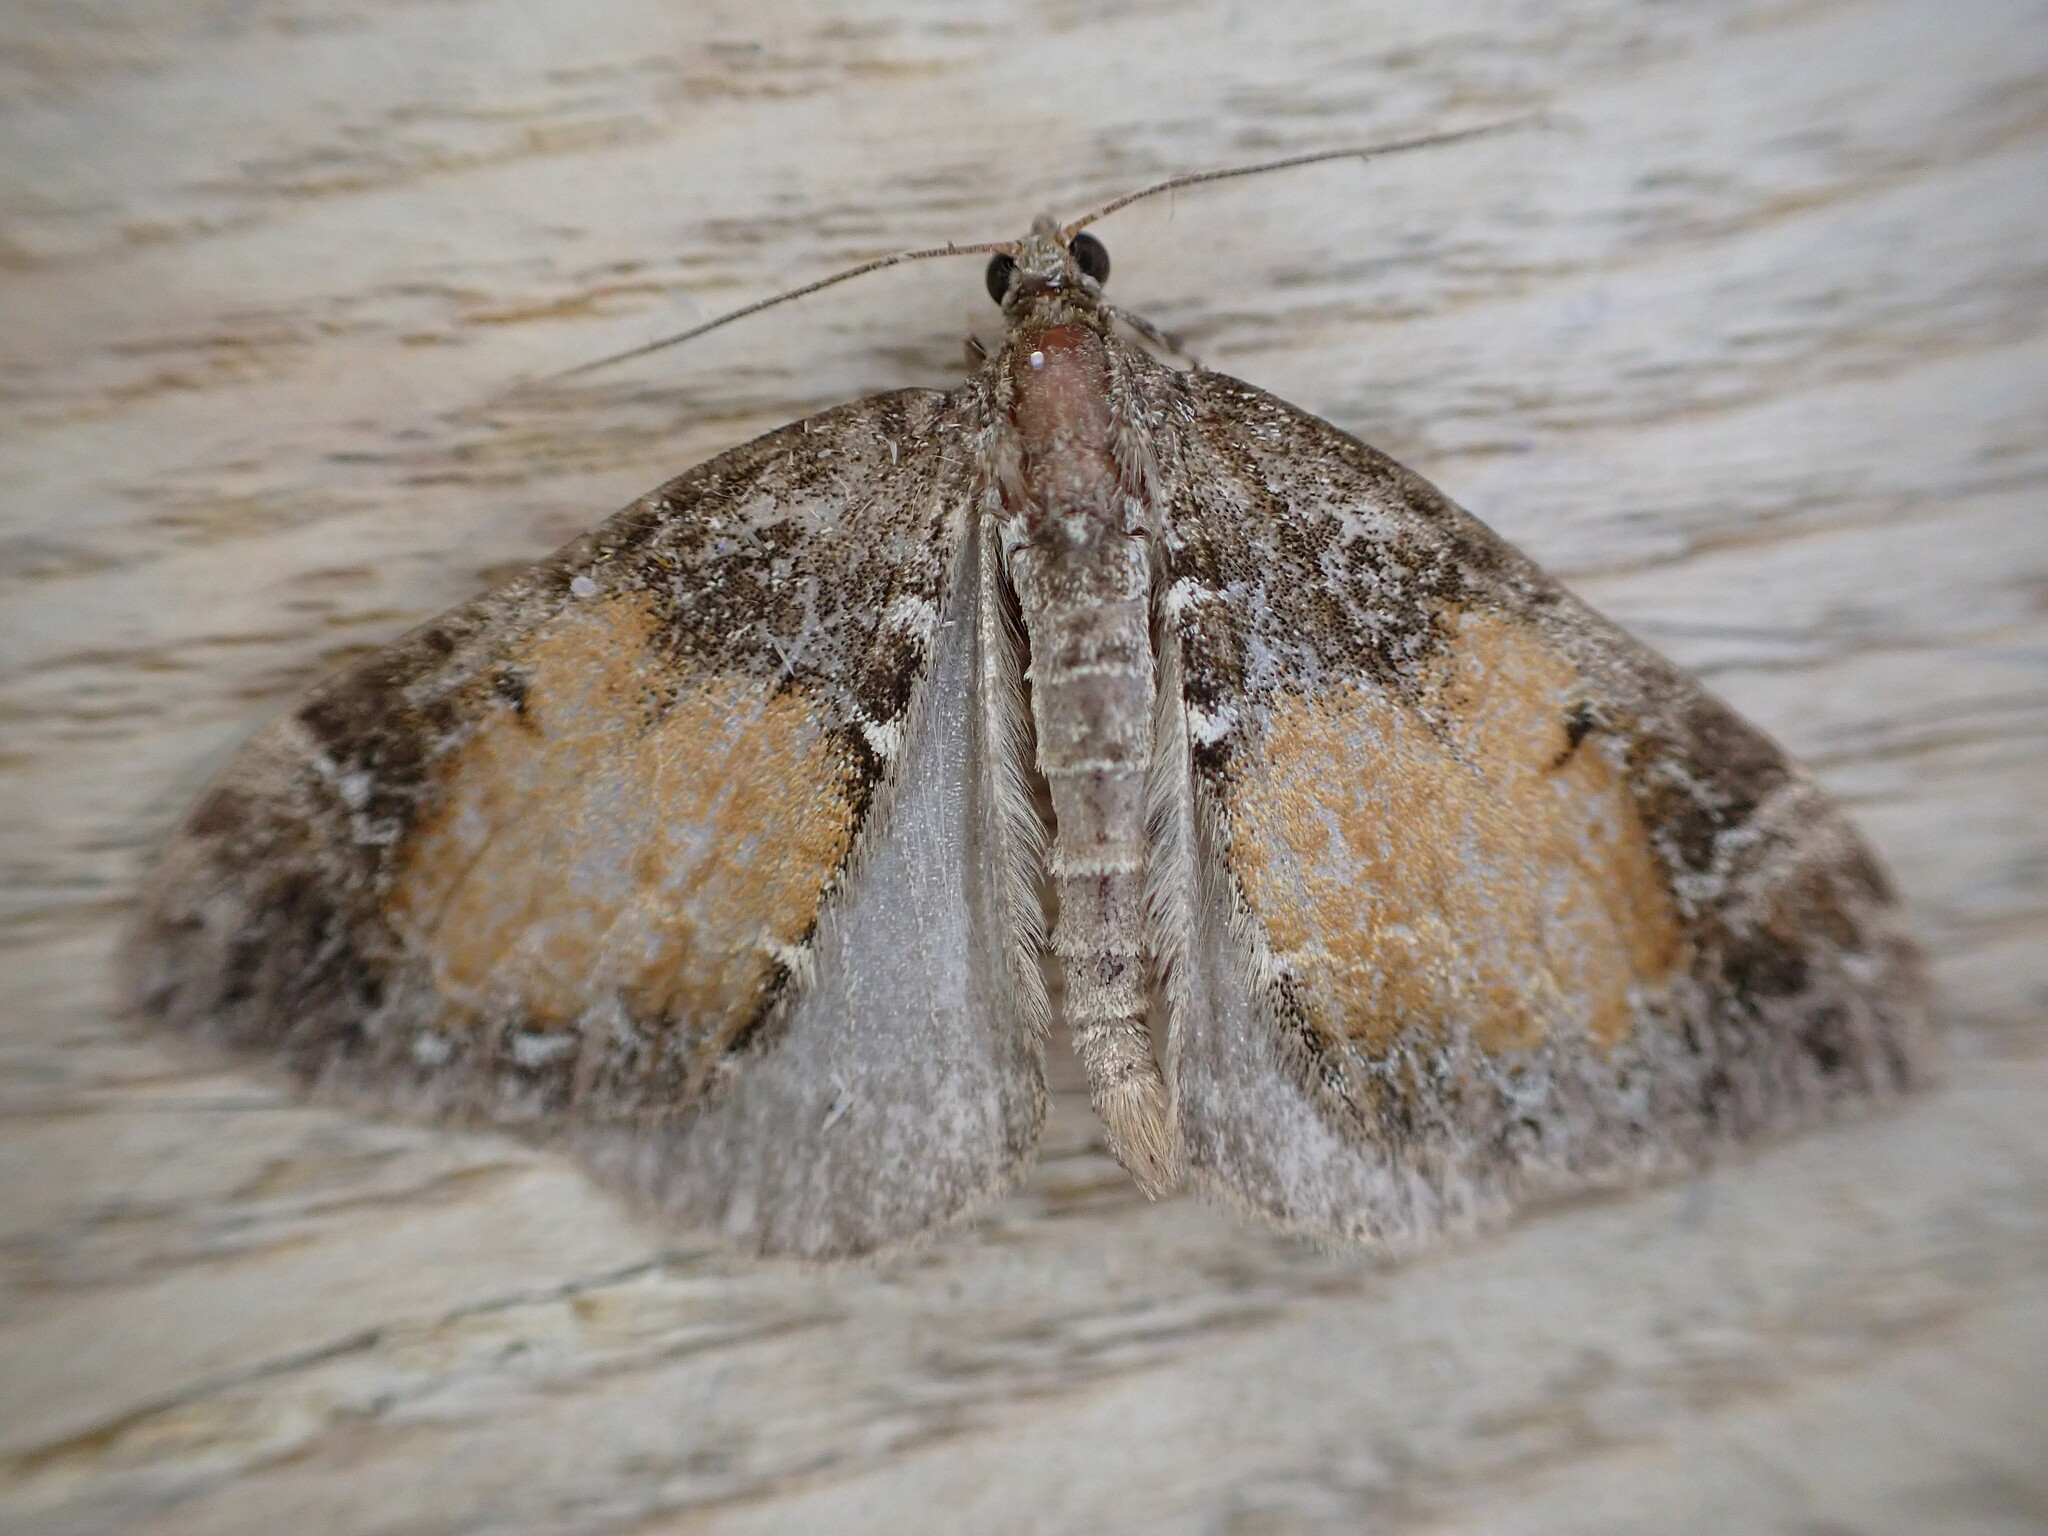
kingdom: Animalia
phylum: Arthropoda
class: Insecta
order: Lepidoptera
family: Geometridae
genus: Dysstroma
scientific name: Dysstroma truncata
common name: Common marbled carpet
